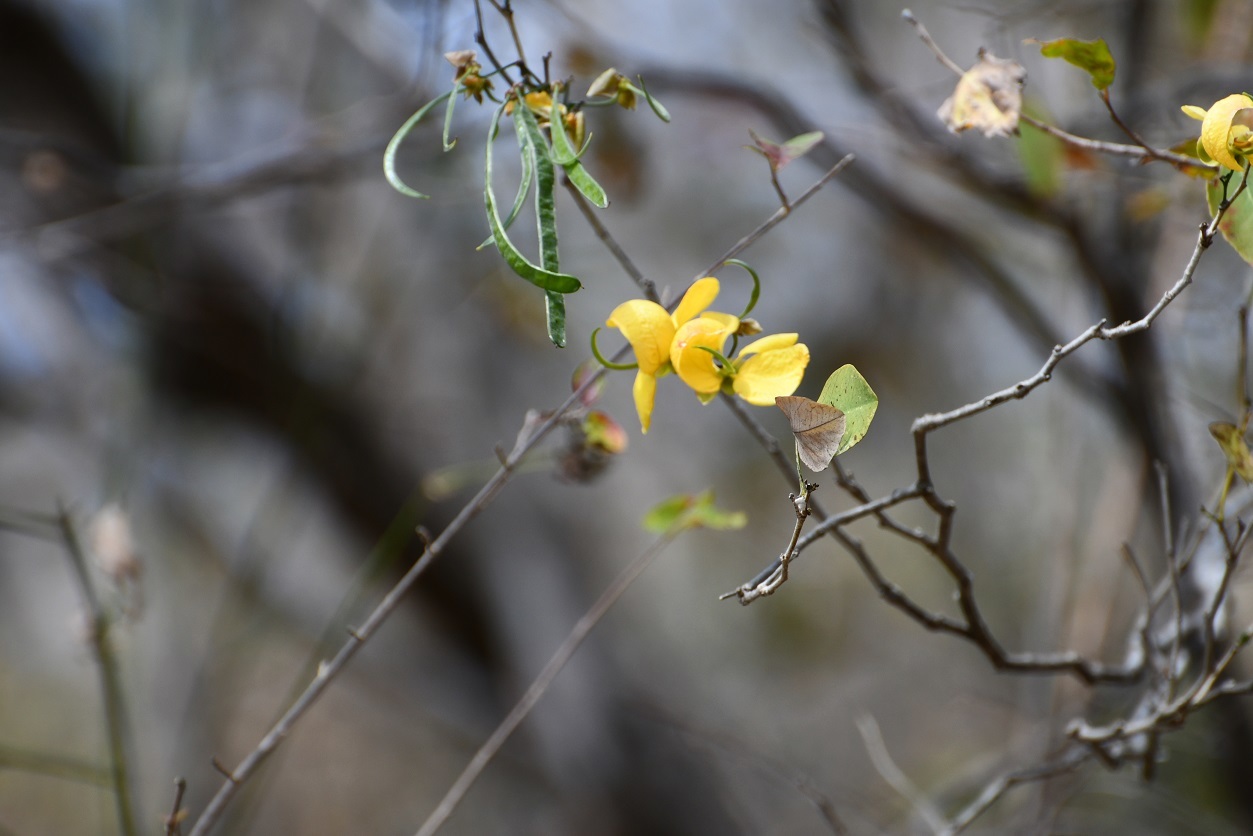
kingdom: Plantae
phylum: Tracheophyta
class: Magnoliopsida
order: Fabales
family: Fabaceae
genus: Senna
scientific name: Senna holwayana
